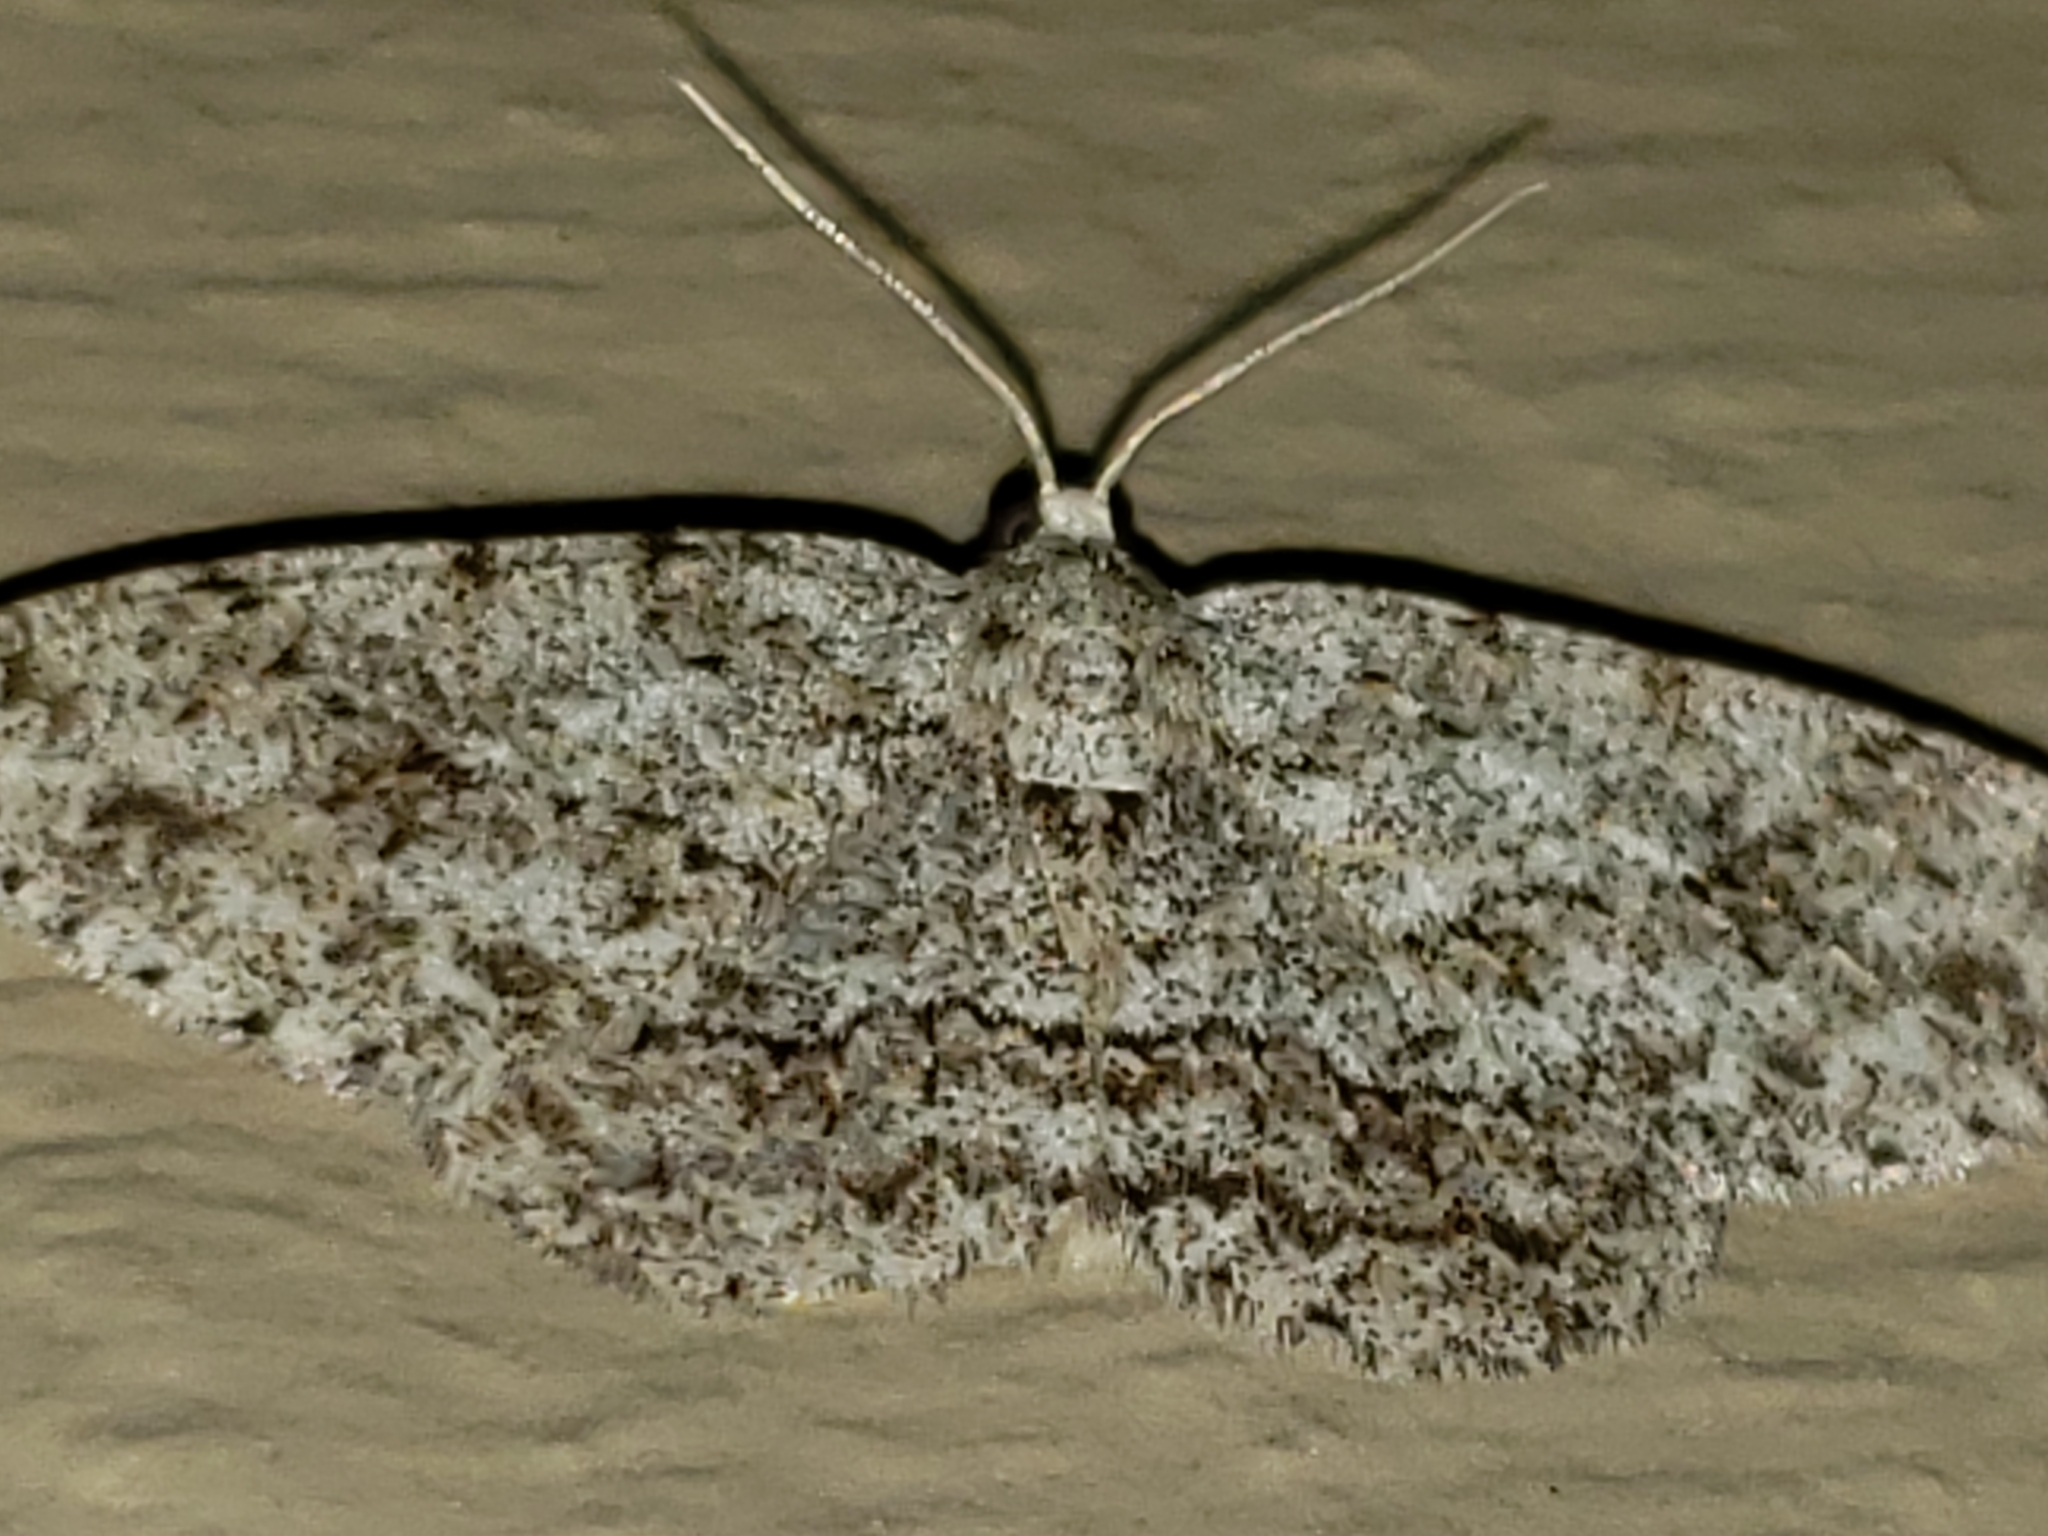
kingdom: Animalia
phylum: Arthropoda
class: Insecta
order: Lepidoptera
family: Geometridae
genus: Ectropis
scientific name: Ectropis crepuscularia
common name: Engrailed
